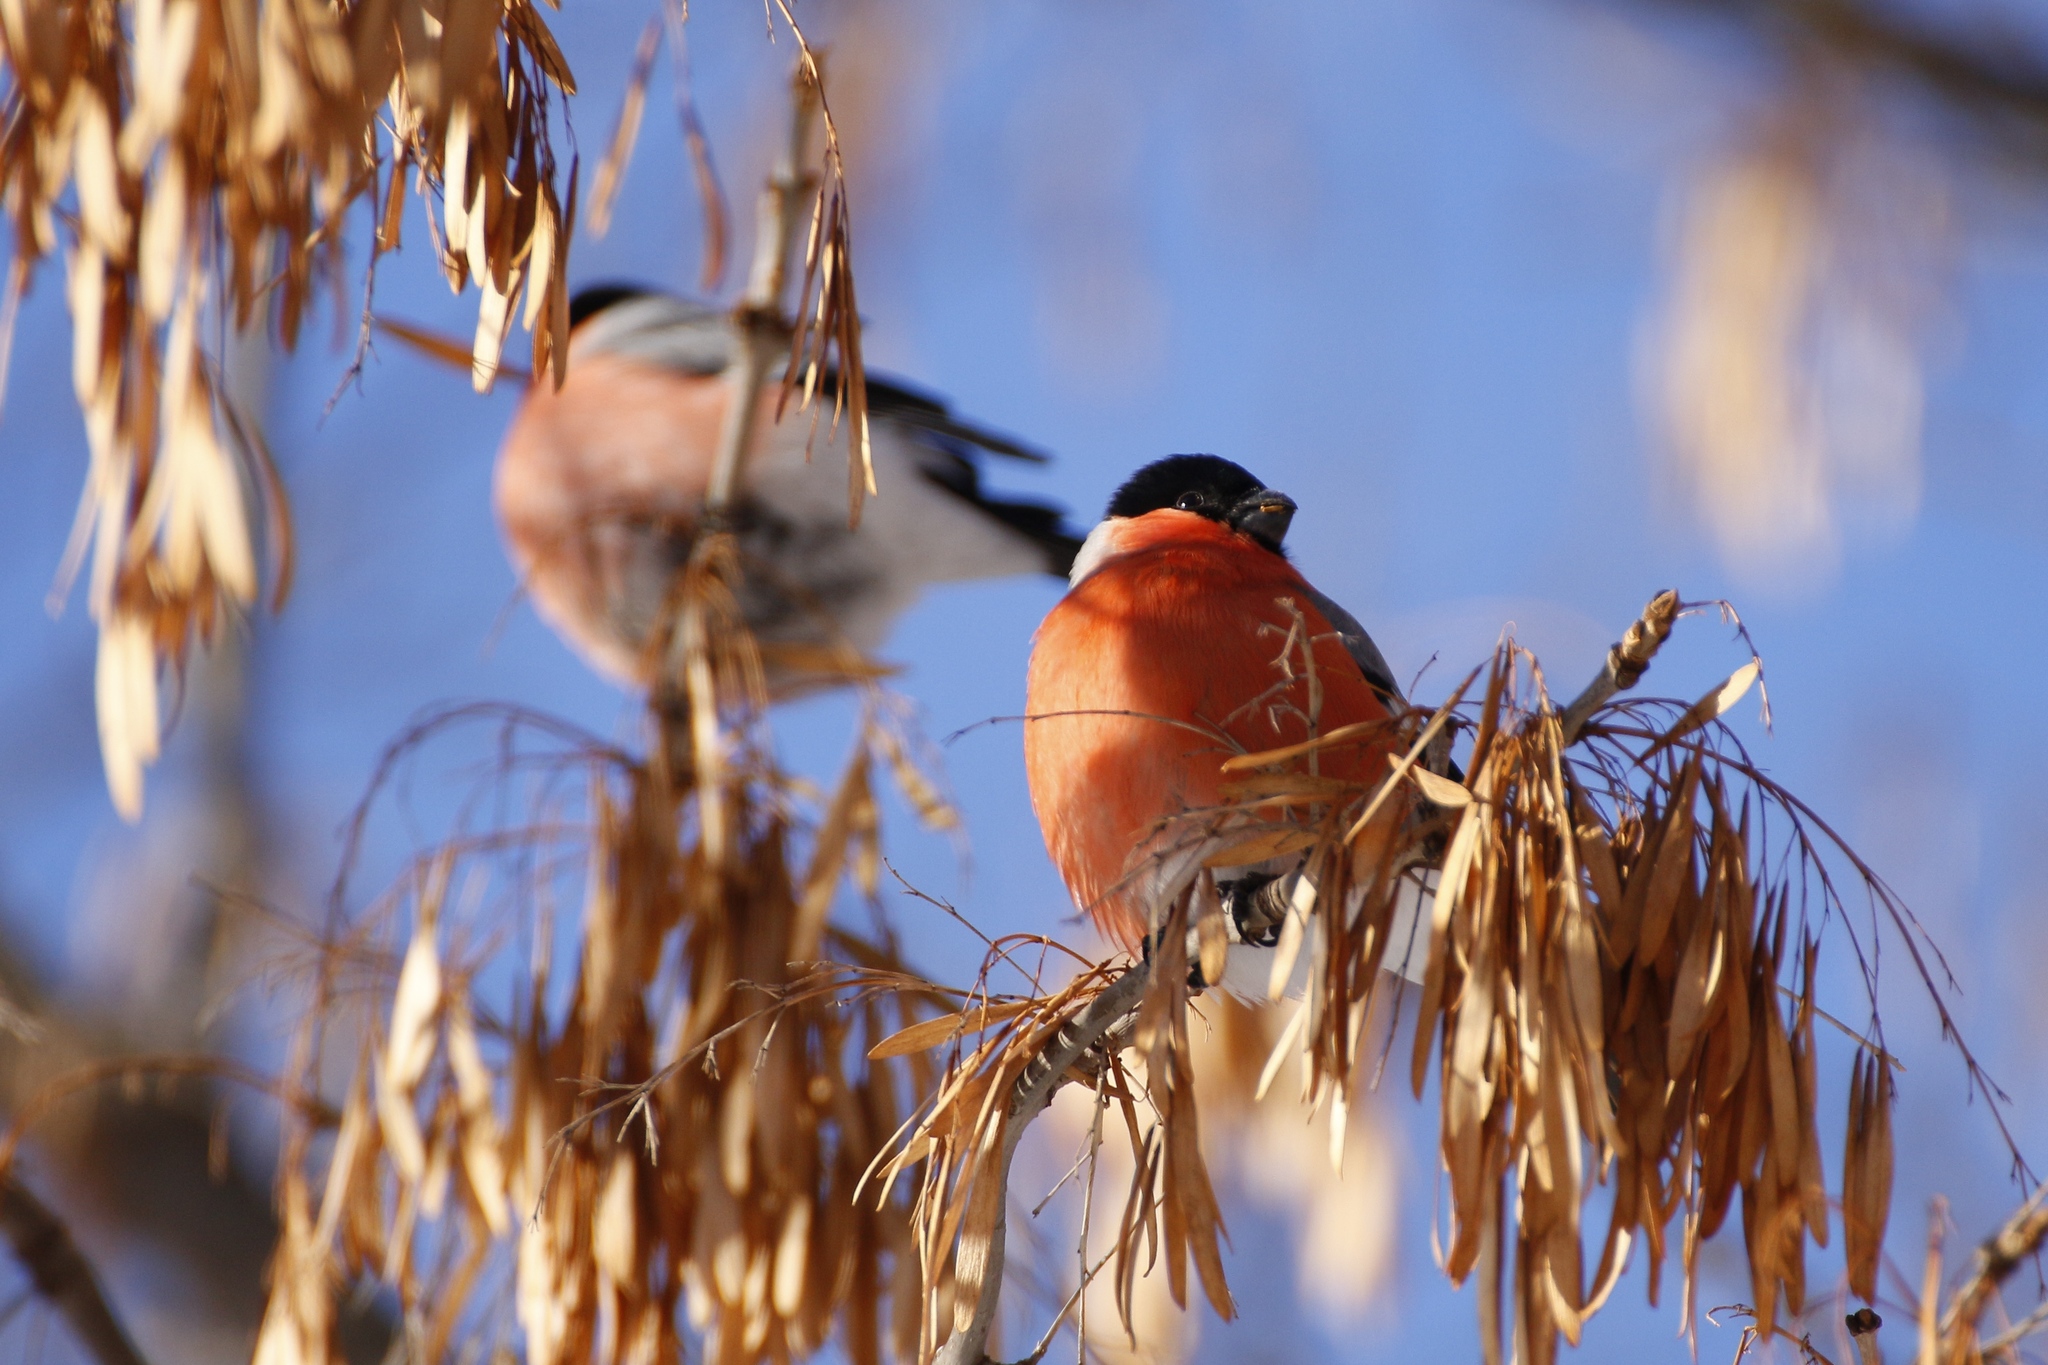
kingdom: Animalia
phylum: Chordata
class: Aves
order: Passeriformes
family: Fringillidae
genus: Pyrrhula
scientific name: Pyrrhula pyrrhula
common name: Eurasian bullfinch
